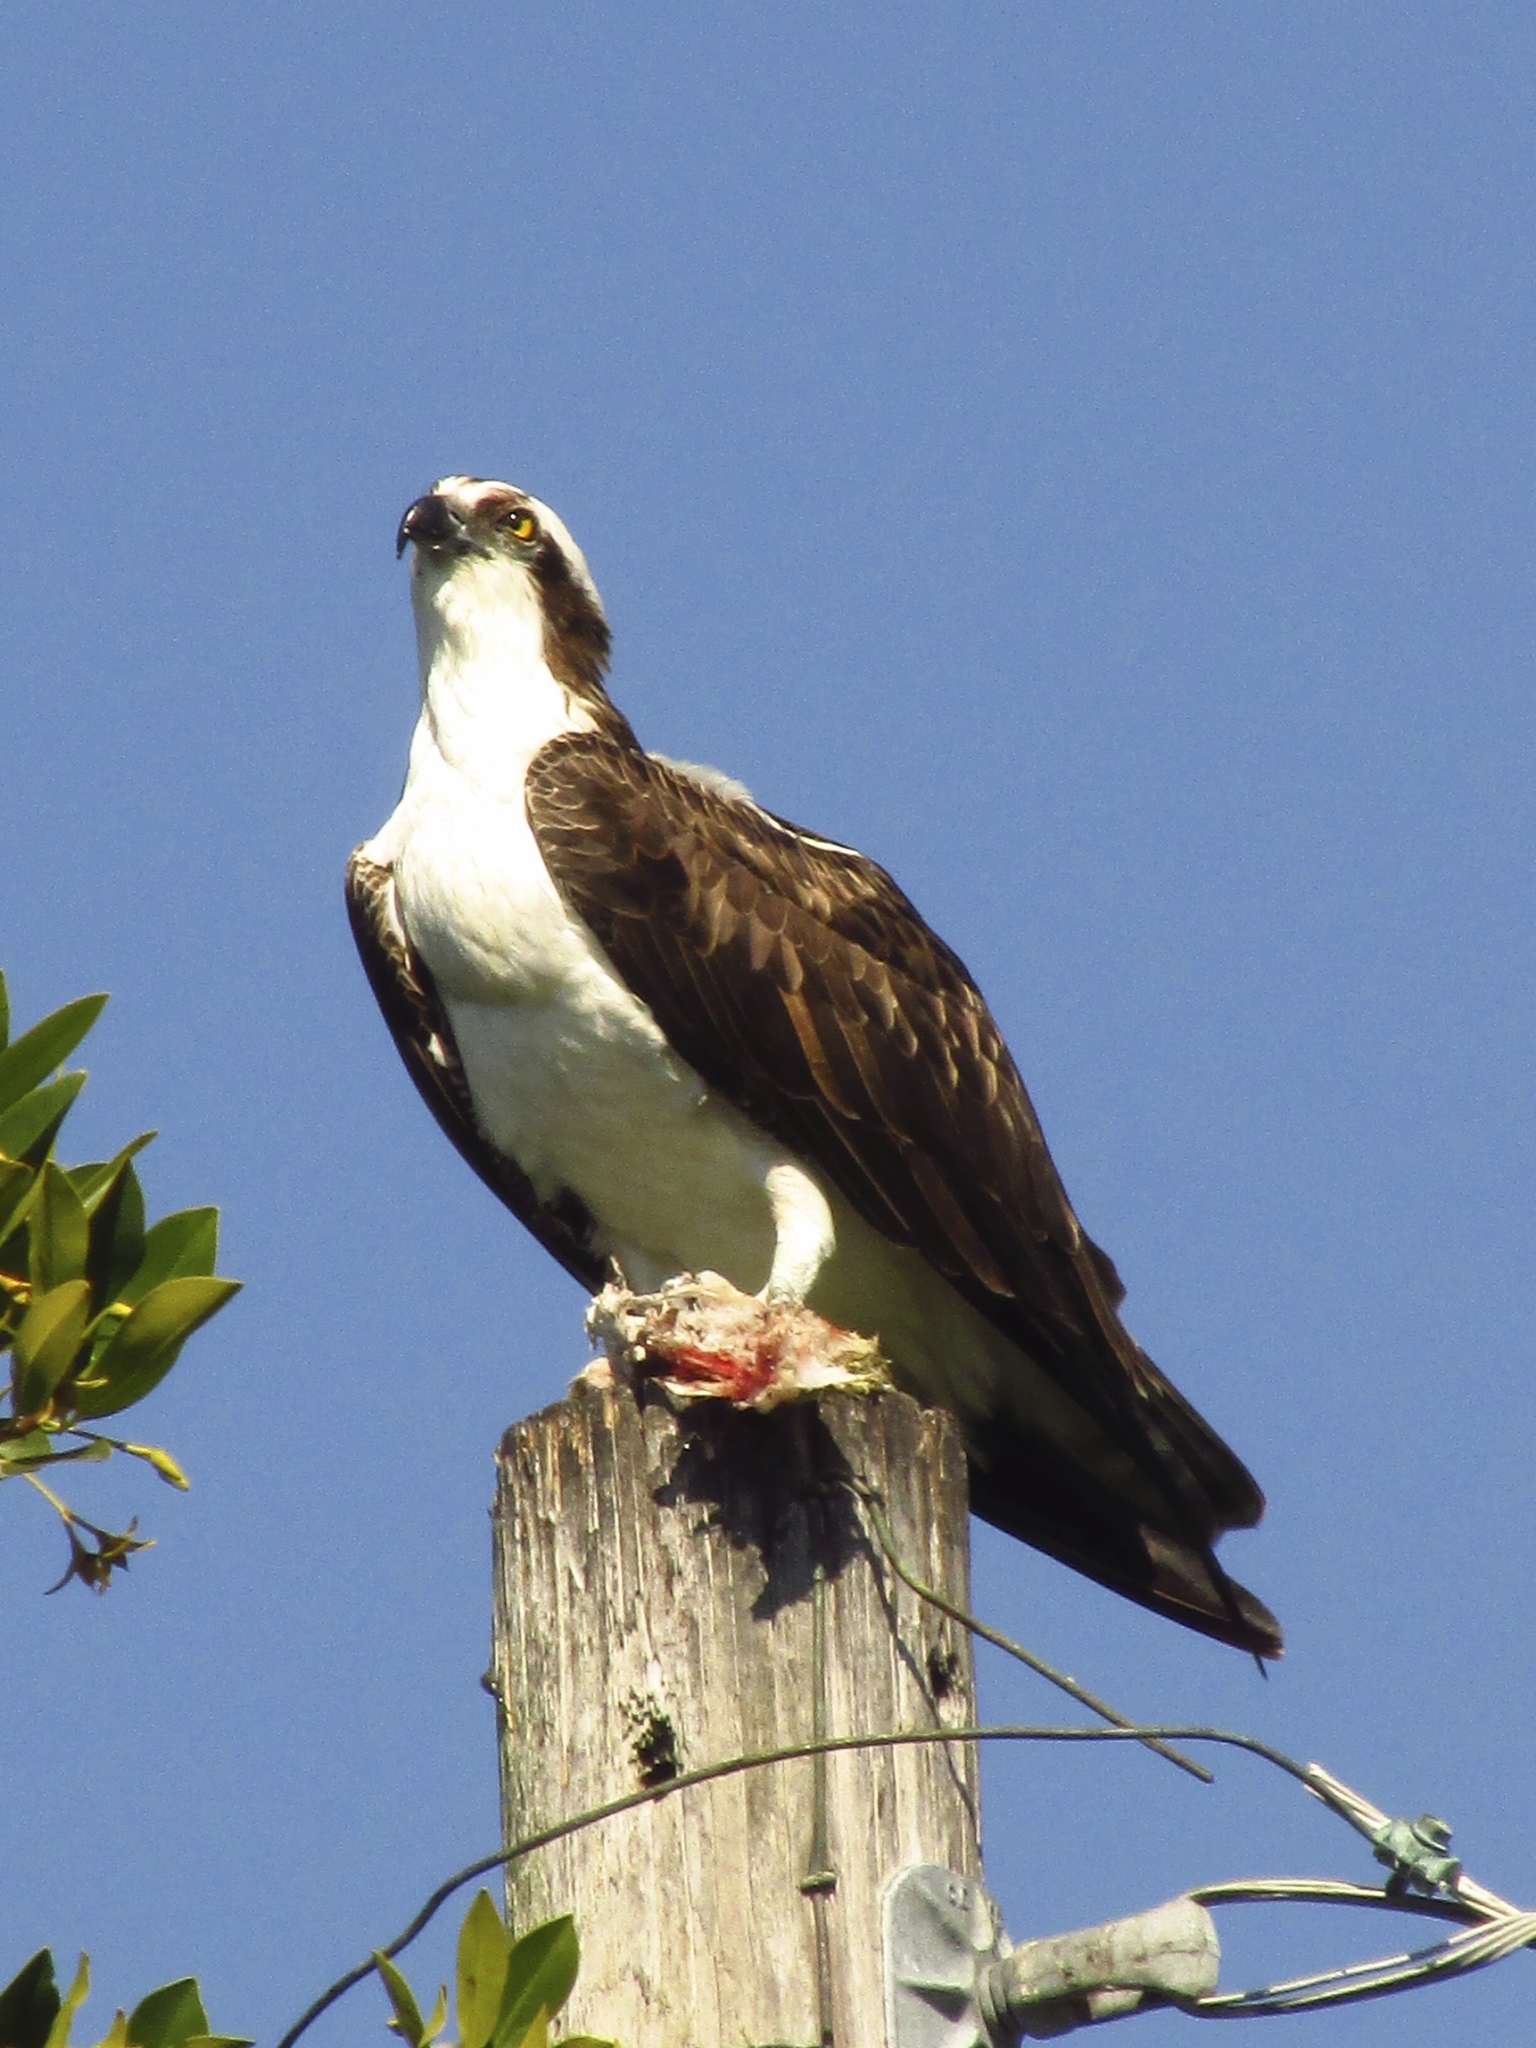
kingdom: Animalia
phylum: Chordata
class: Aves
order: Accipitriformes
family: Pandionidae
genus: Pandion
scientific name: Pandion haliaetus
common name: Osprey
